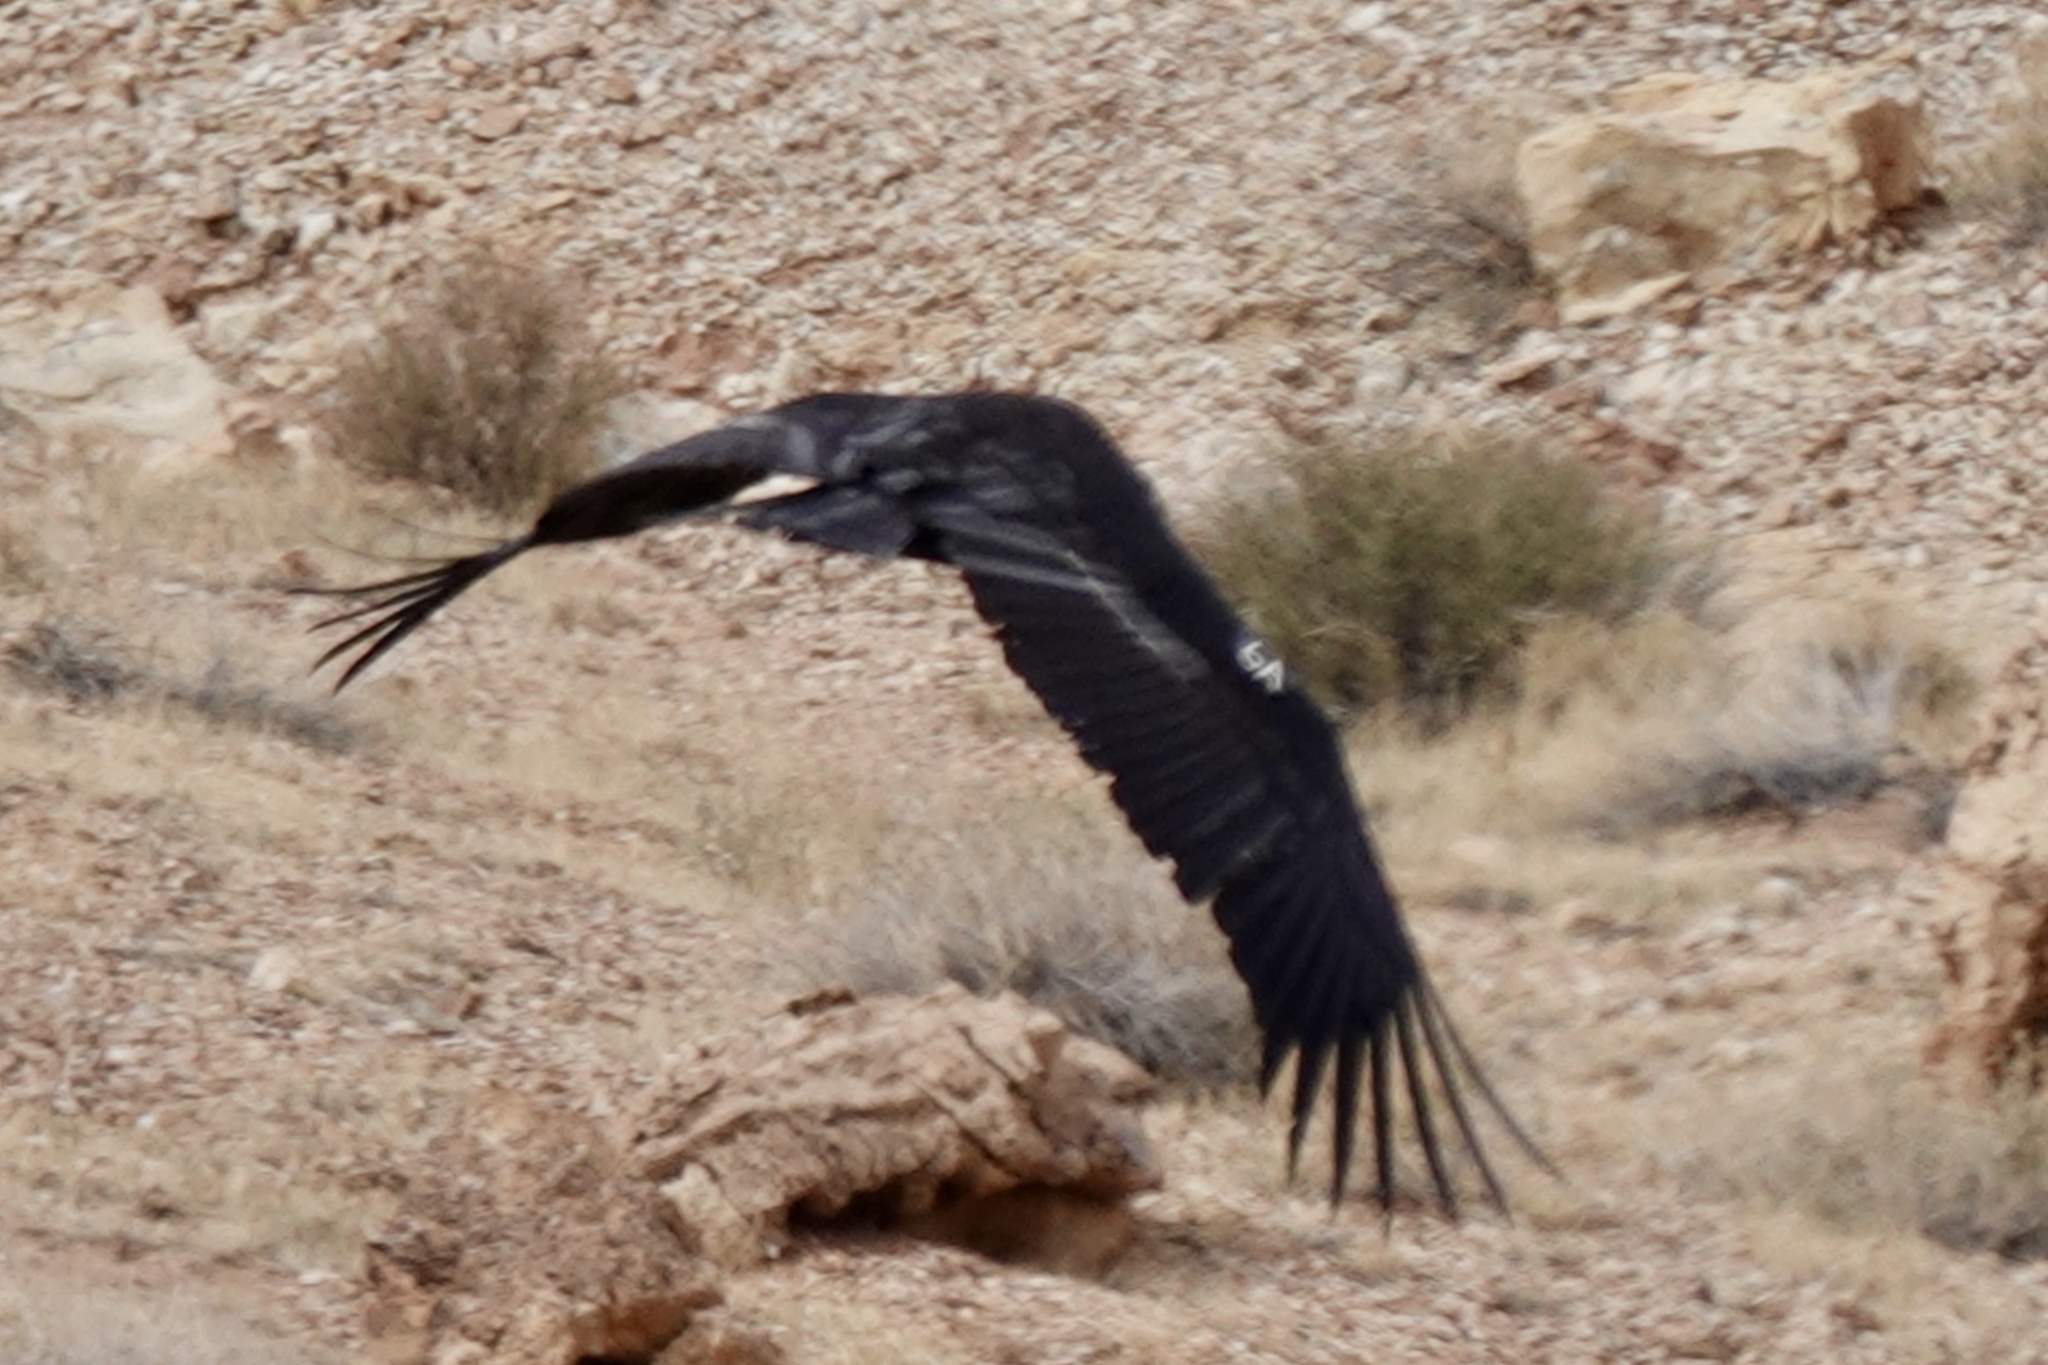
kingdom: Animalia
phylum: Chordata
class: Aves
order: Accipitriformes
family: Cathartidae
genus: Gymnogyps
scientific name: Gymnogyps californianus
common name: California condor
